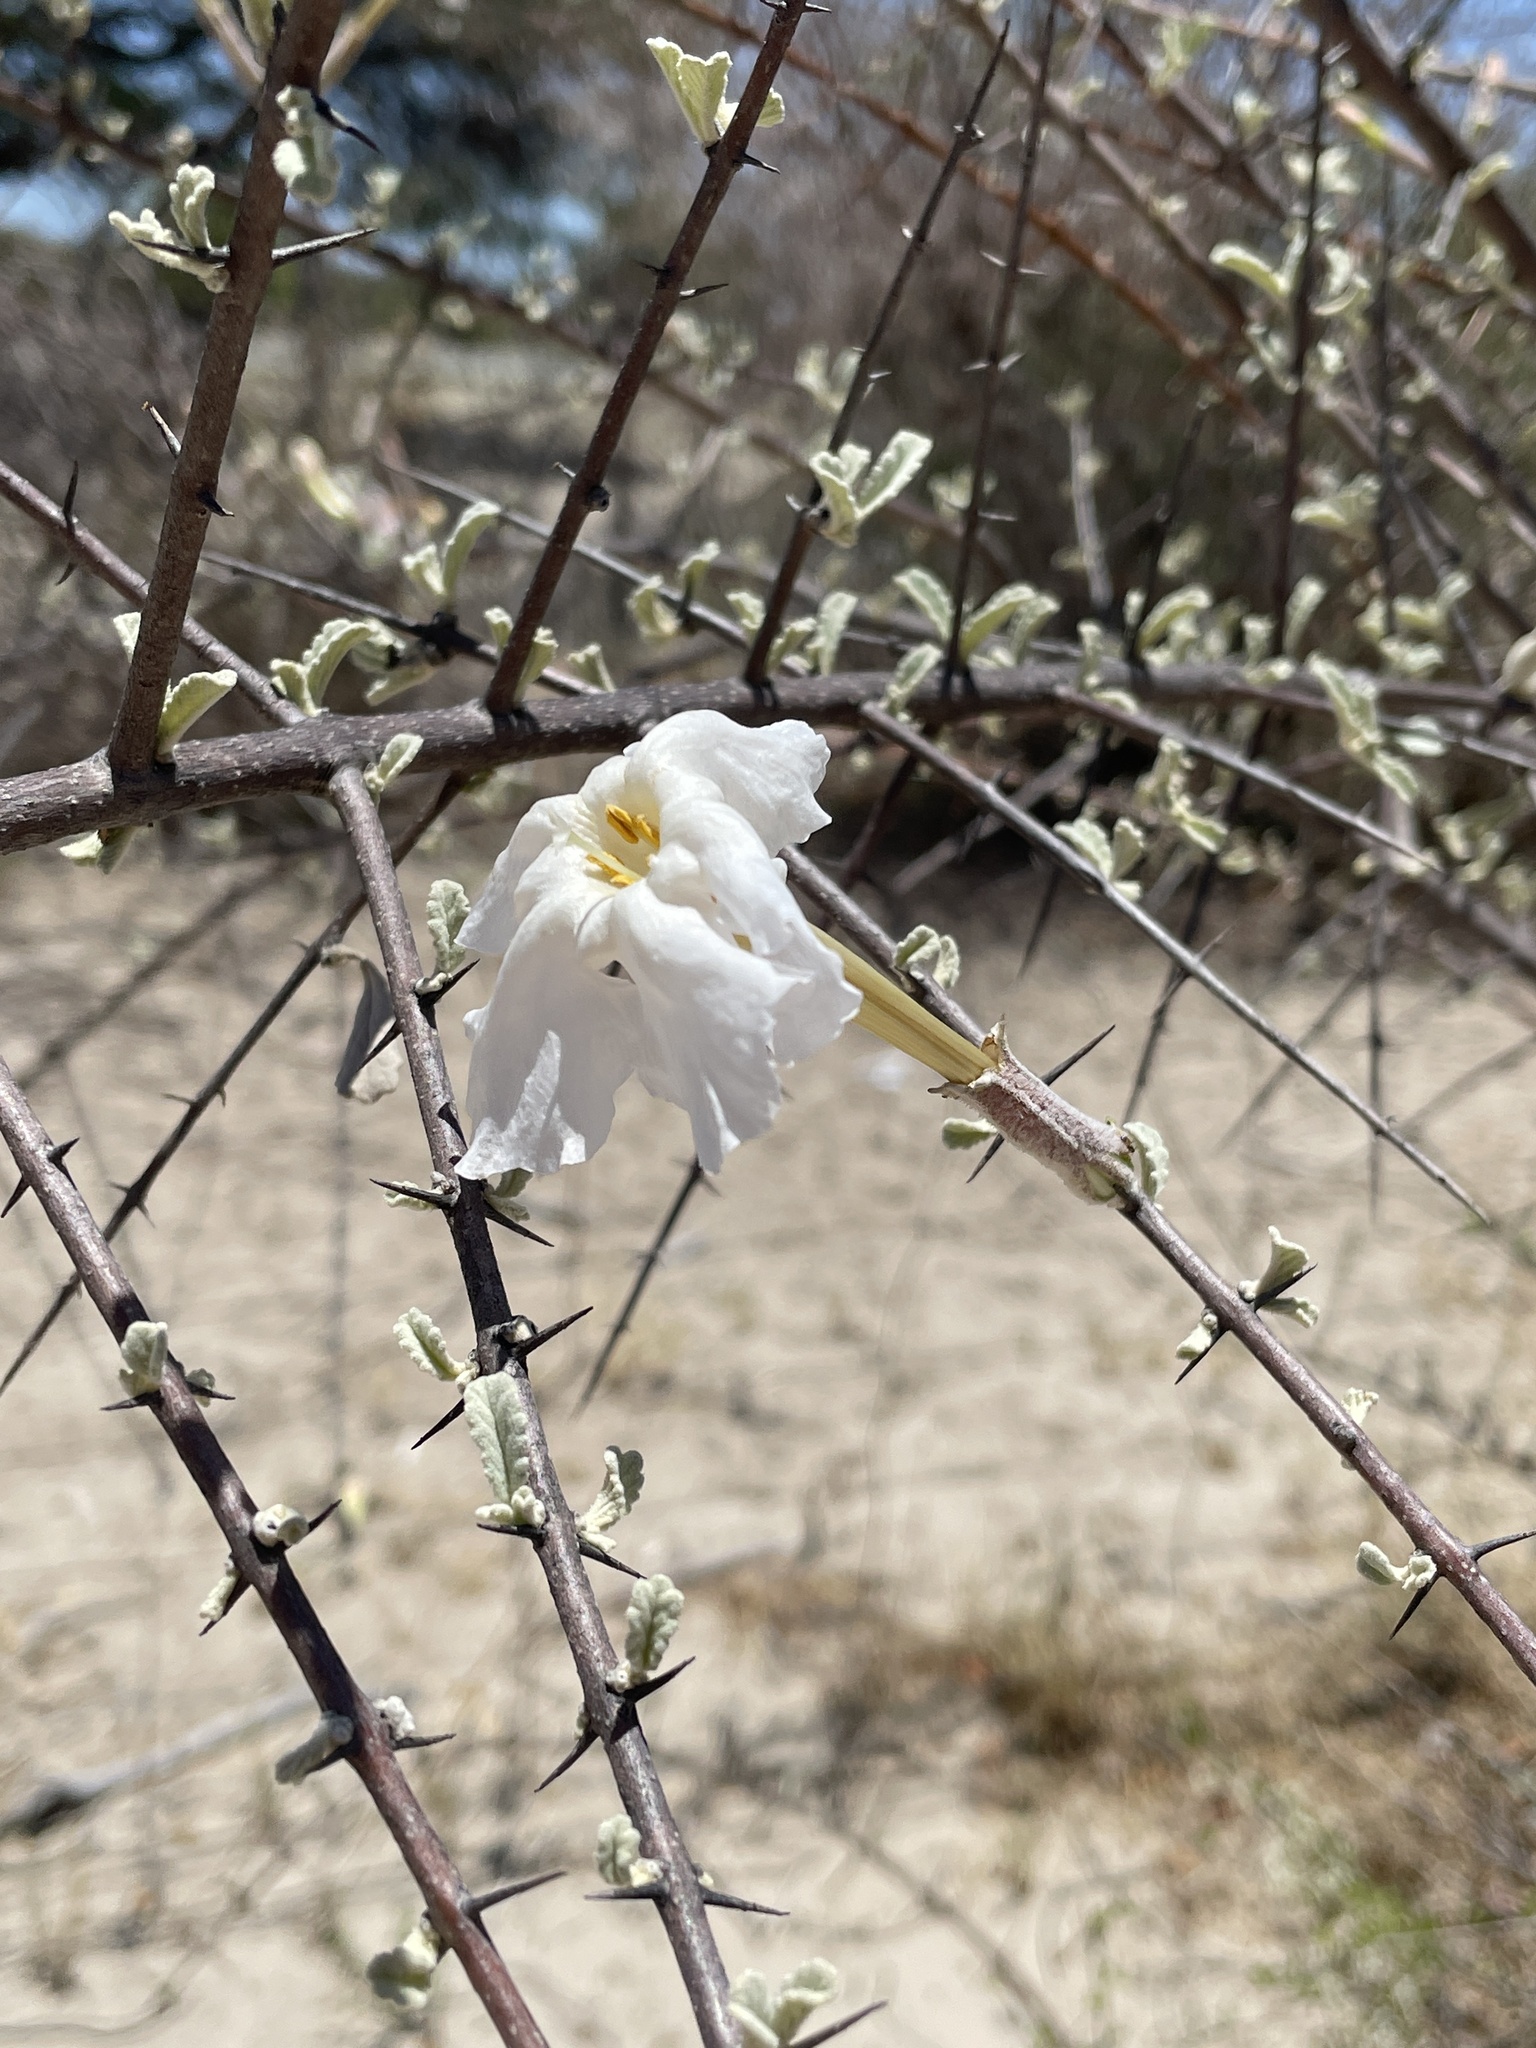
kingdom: Plantae
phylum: Tracheophyta
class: Magnoliopsida
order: Lamiales
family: Bignoniaceae
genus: Catophractes
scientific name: Catophractes alexandri
